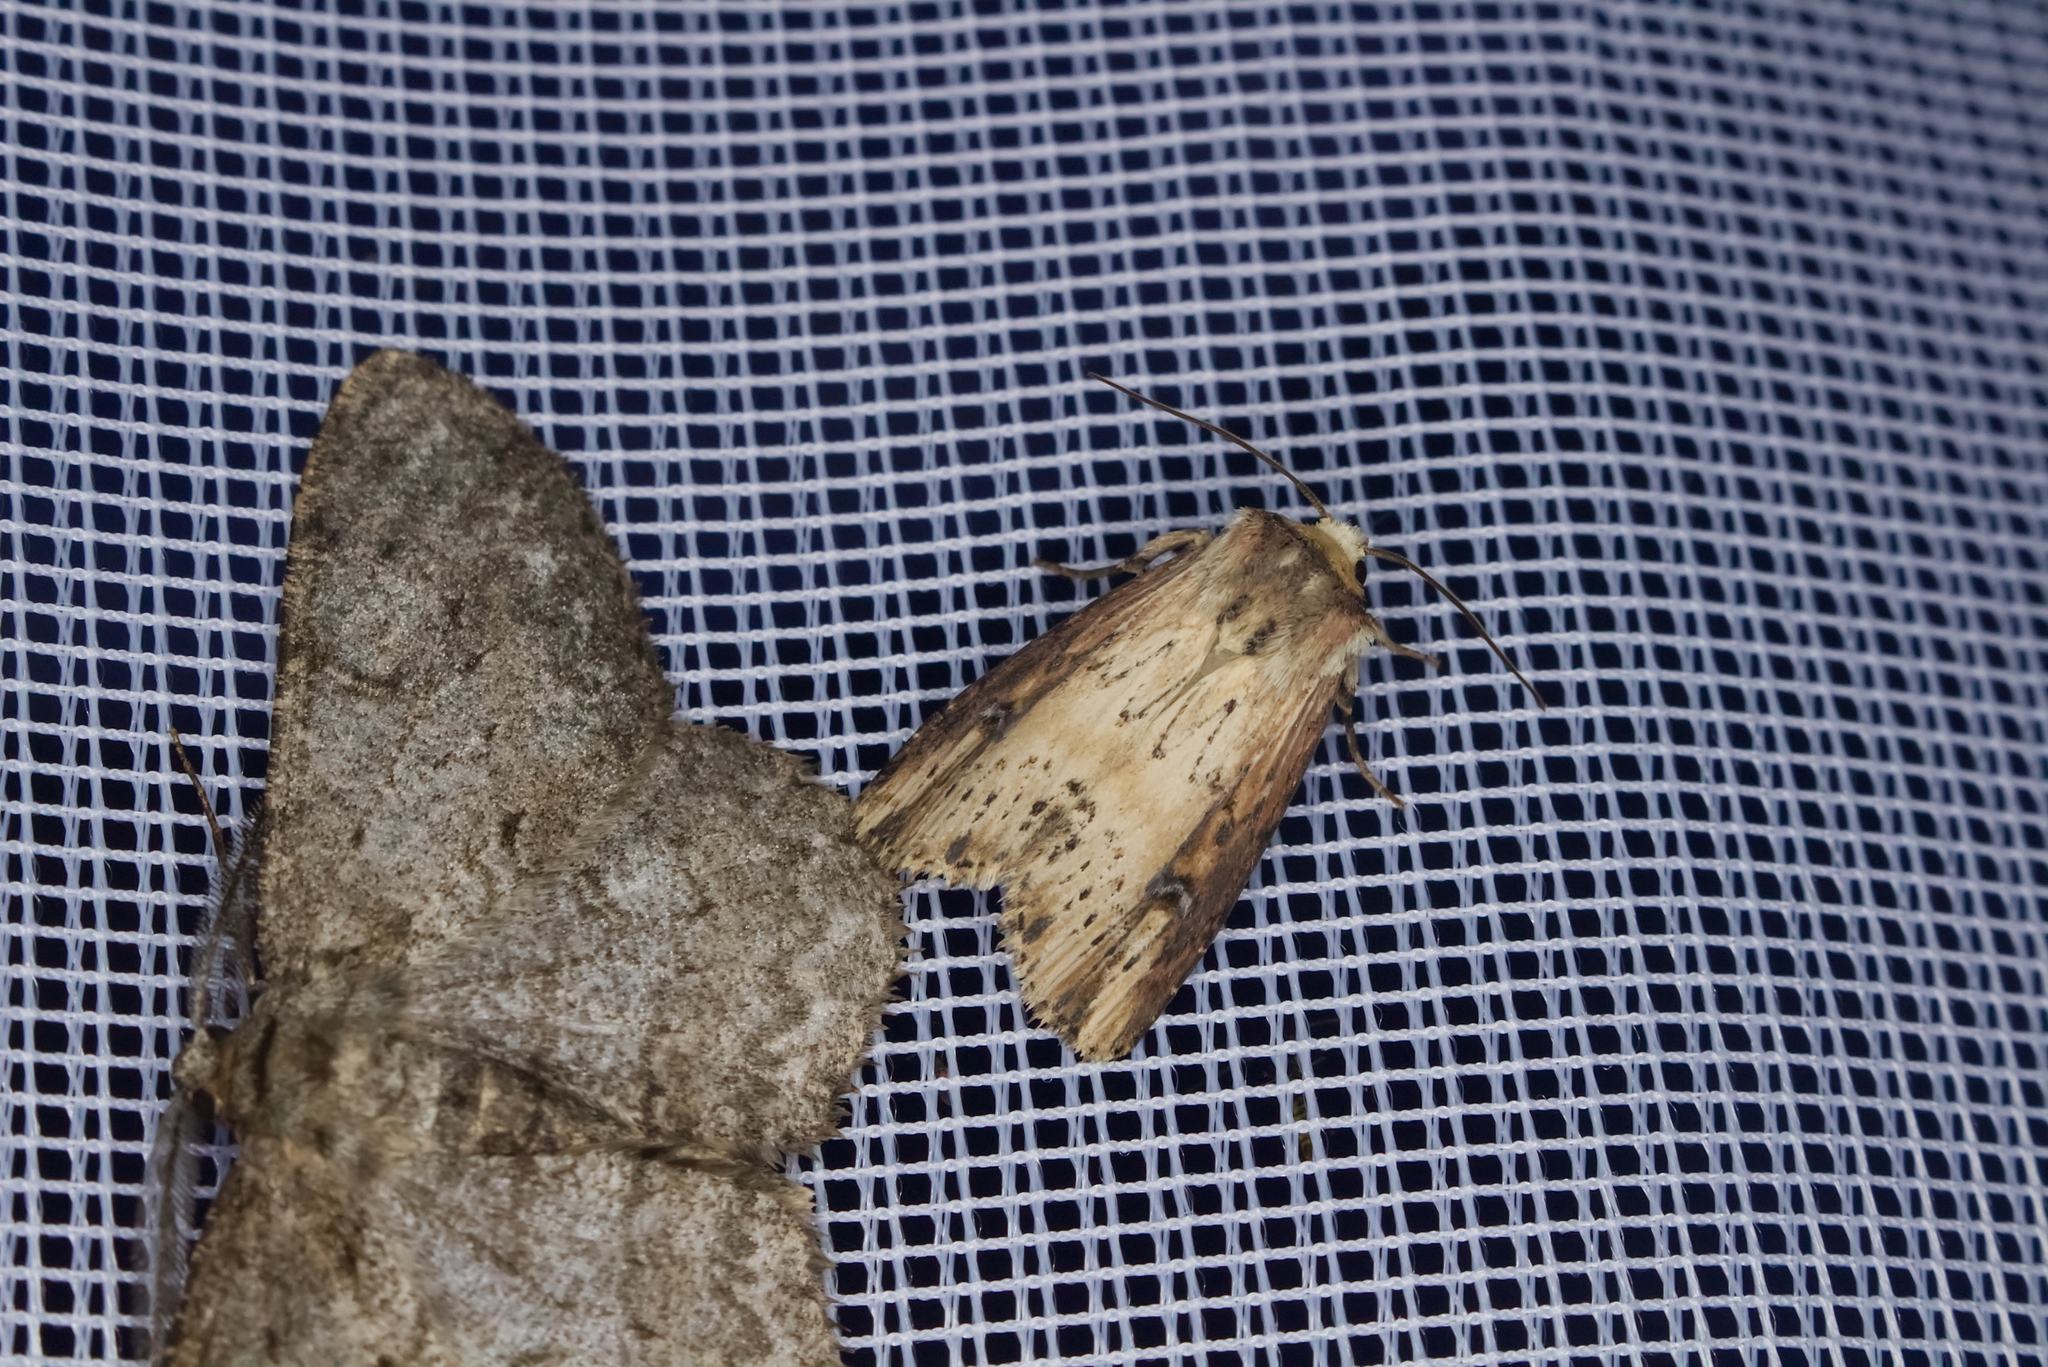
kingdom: Animalia
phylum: Arthropoda
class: Insecta
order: Lepidoptera
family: Noctuidae
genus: Axylia
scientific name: Axylia putris
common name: Flame
